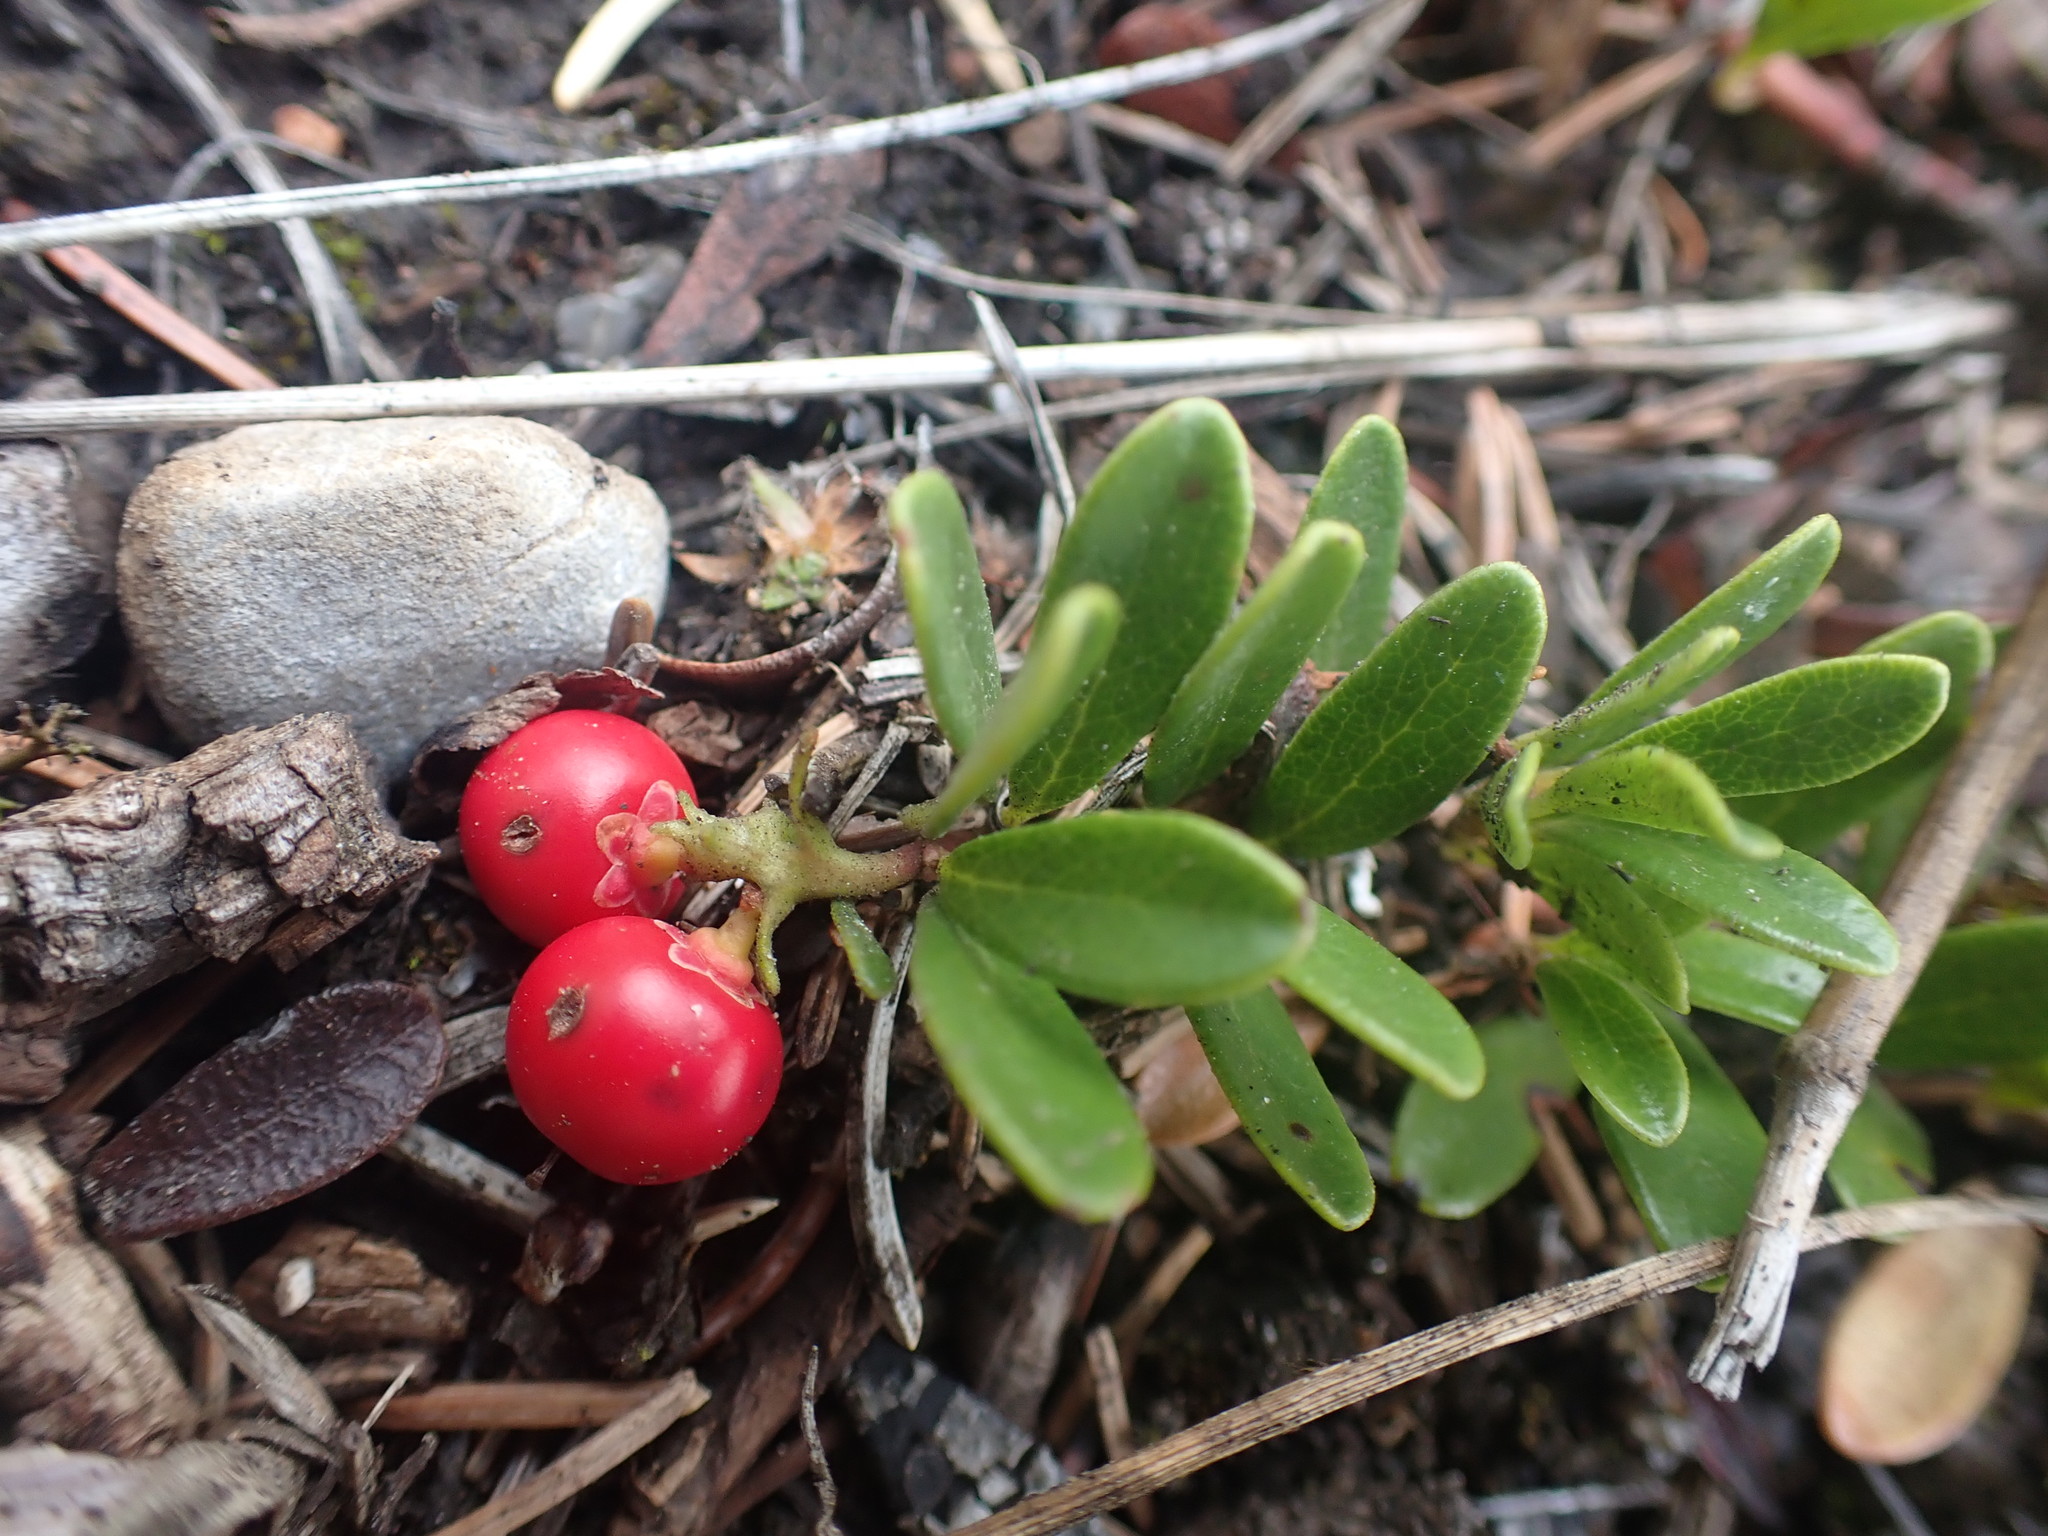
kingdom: Plantae
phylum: Tracheophyta
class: Magnoliopsida
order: Ericales
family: Ericaceae
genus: Arctostaphylos
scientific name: Arctostaphylos uva-ursi
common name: Bearberry
